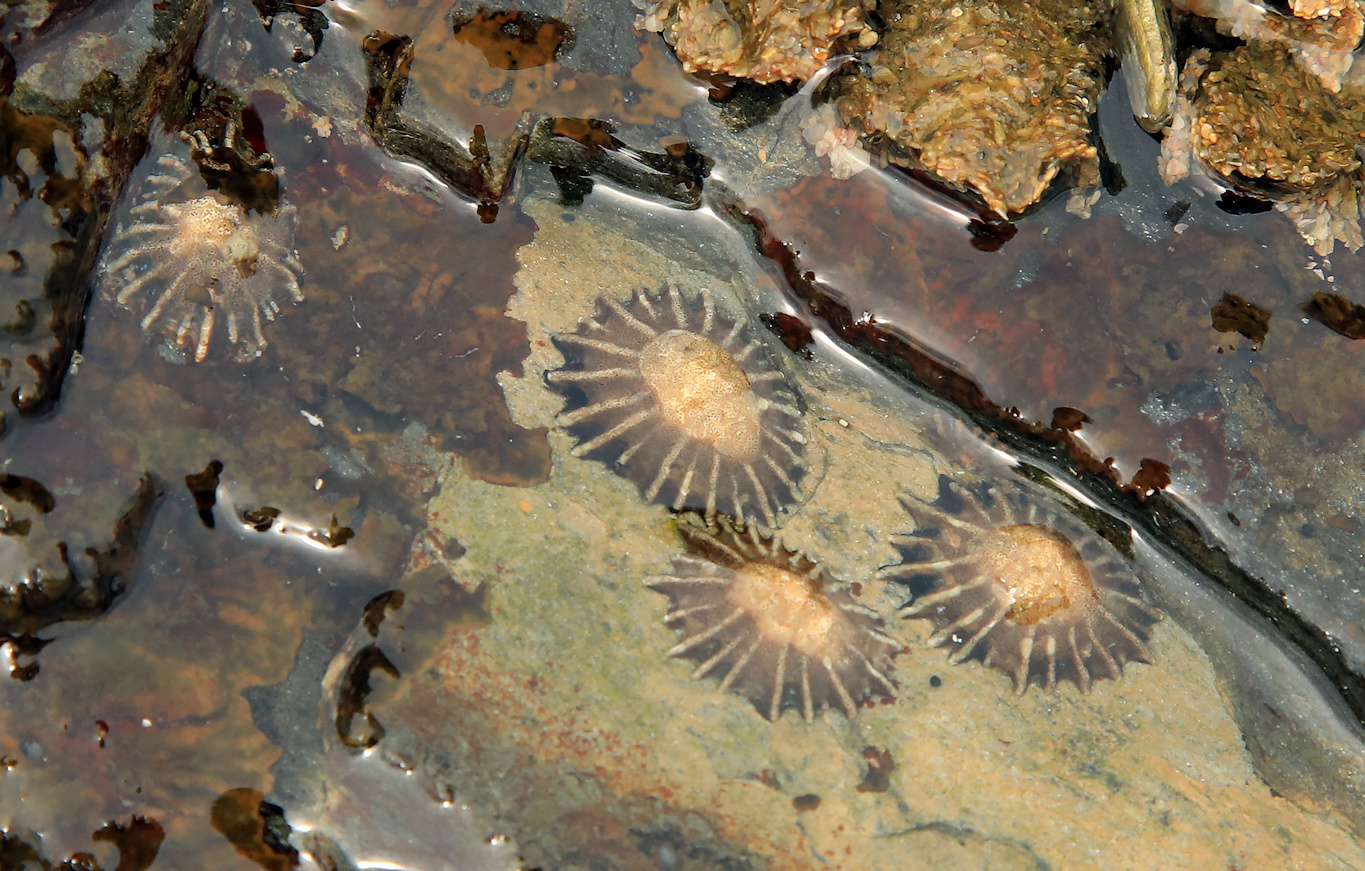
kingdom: Animalia
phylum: Mollusca
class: Gastropoda
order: Siphonariida
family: Siphonariidae
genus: Siphonaria
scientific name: Siphonaria concinna
